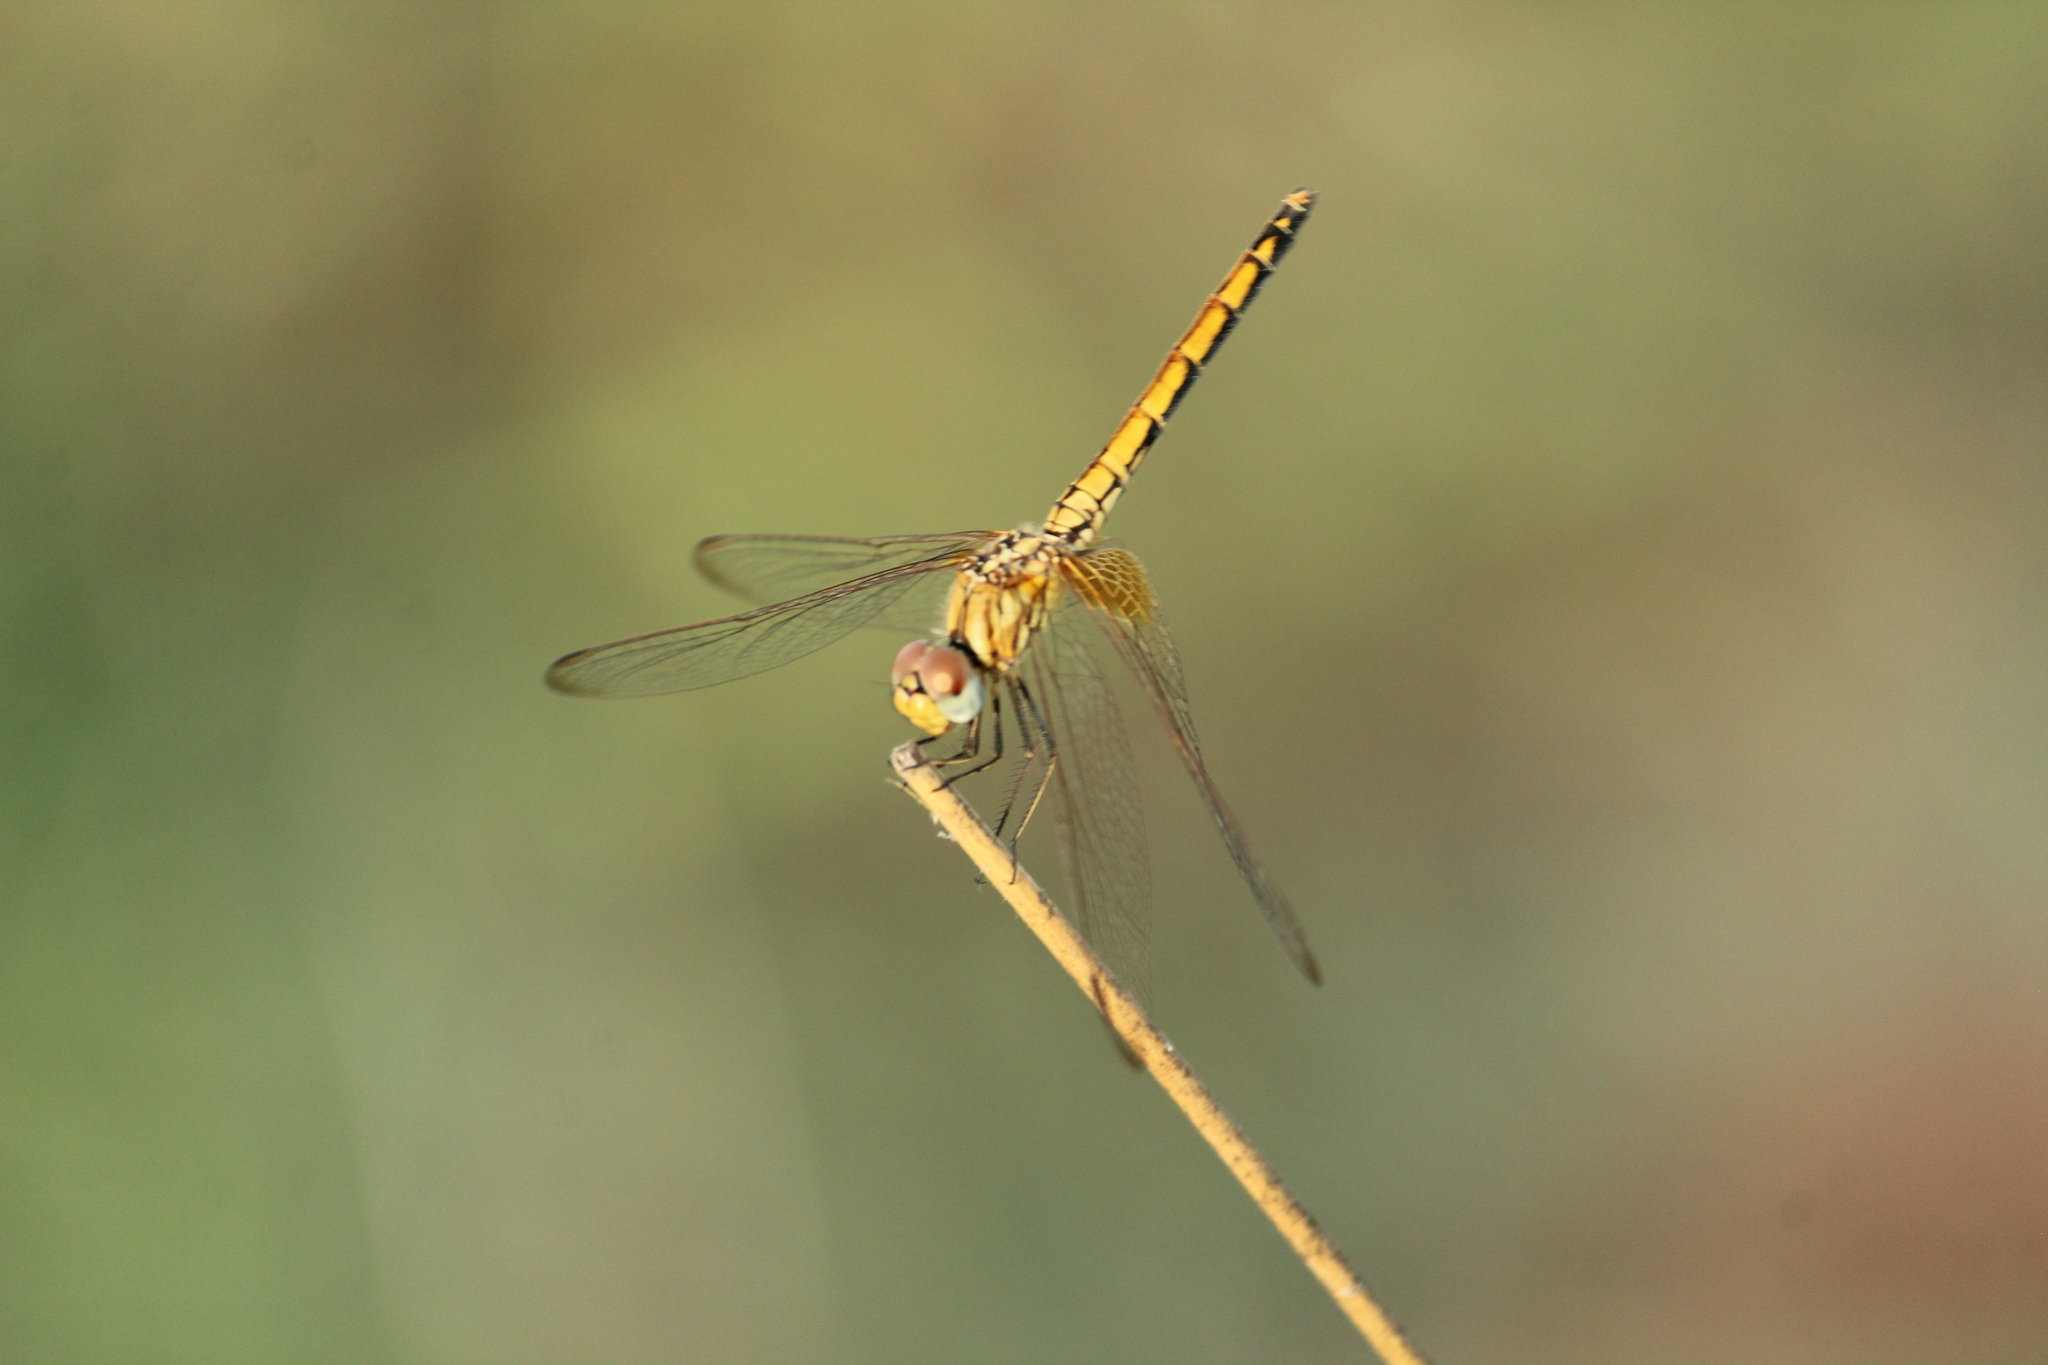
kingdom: Animalia
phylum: Arthropoda
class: Insecta
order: Odonata
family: Libellulidae
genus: Trithemis
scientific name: Trithemis aurora
